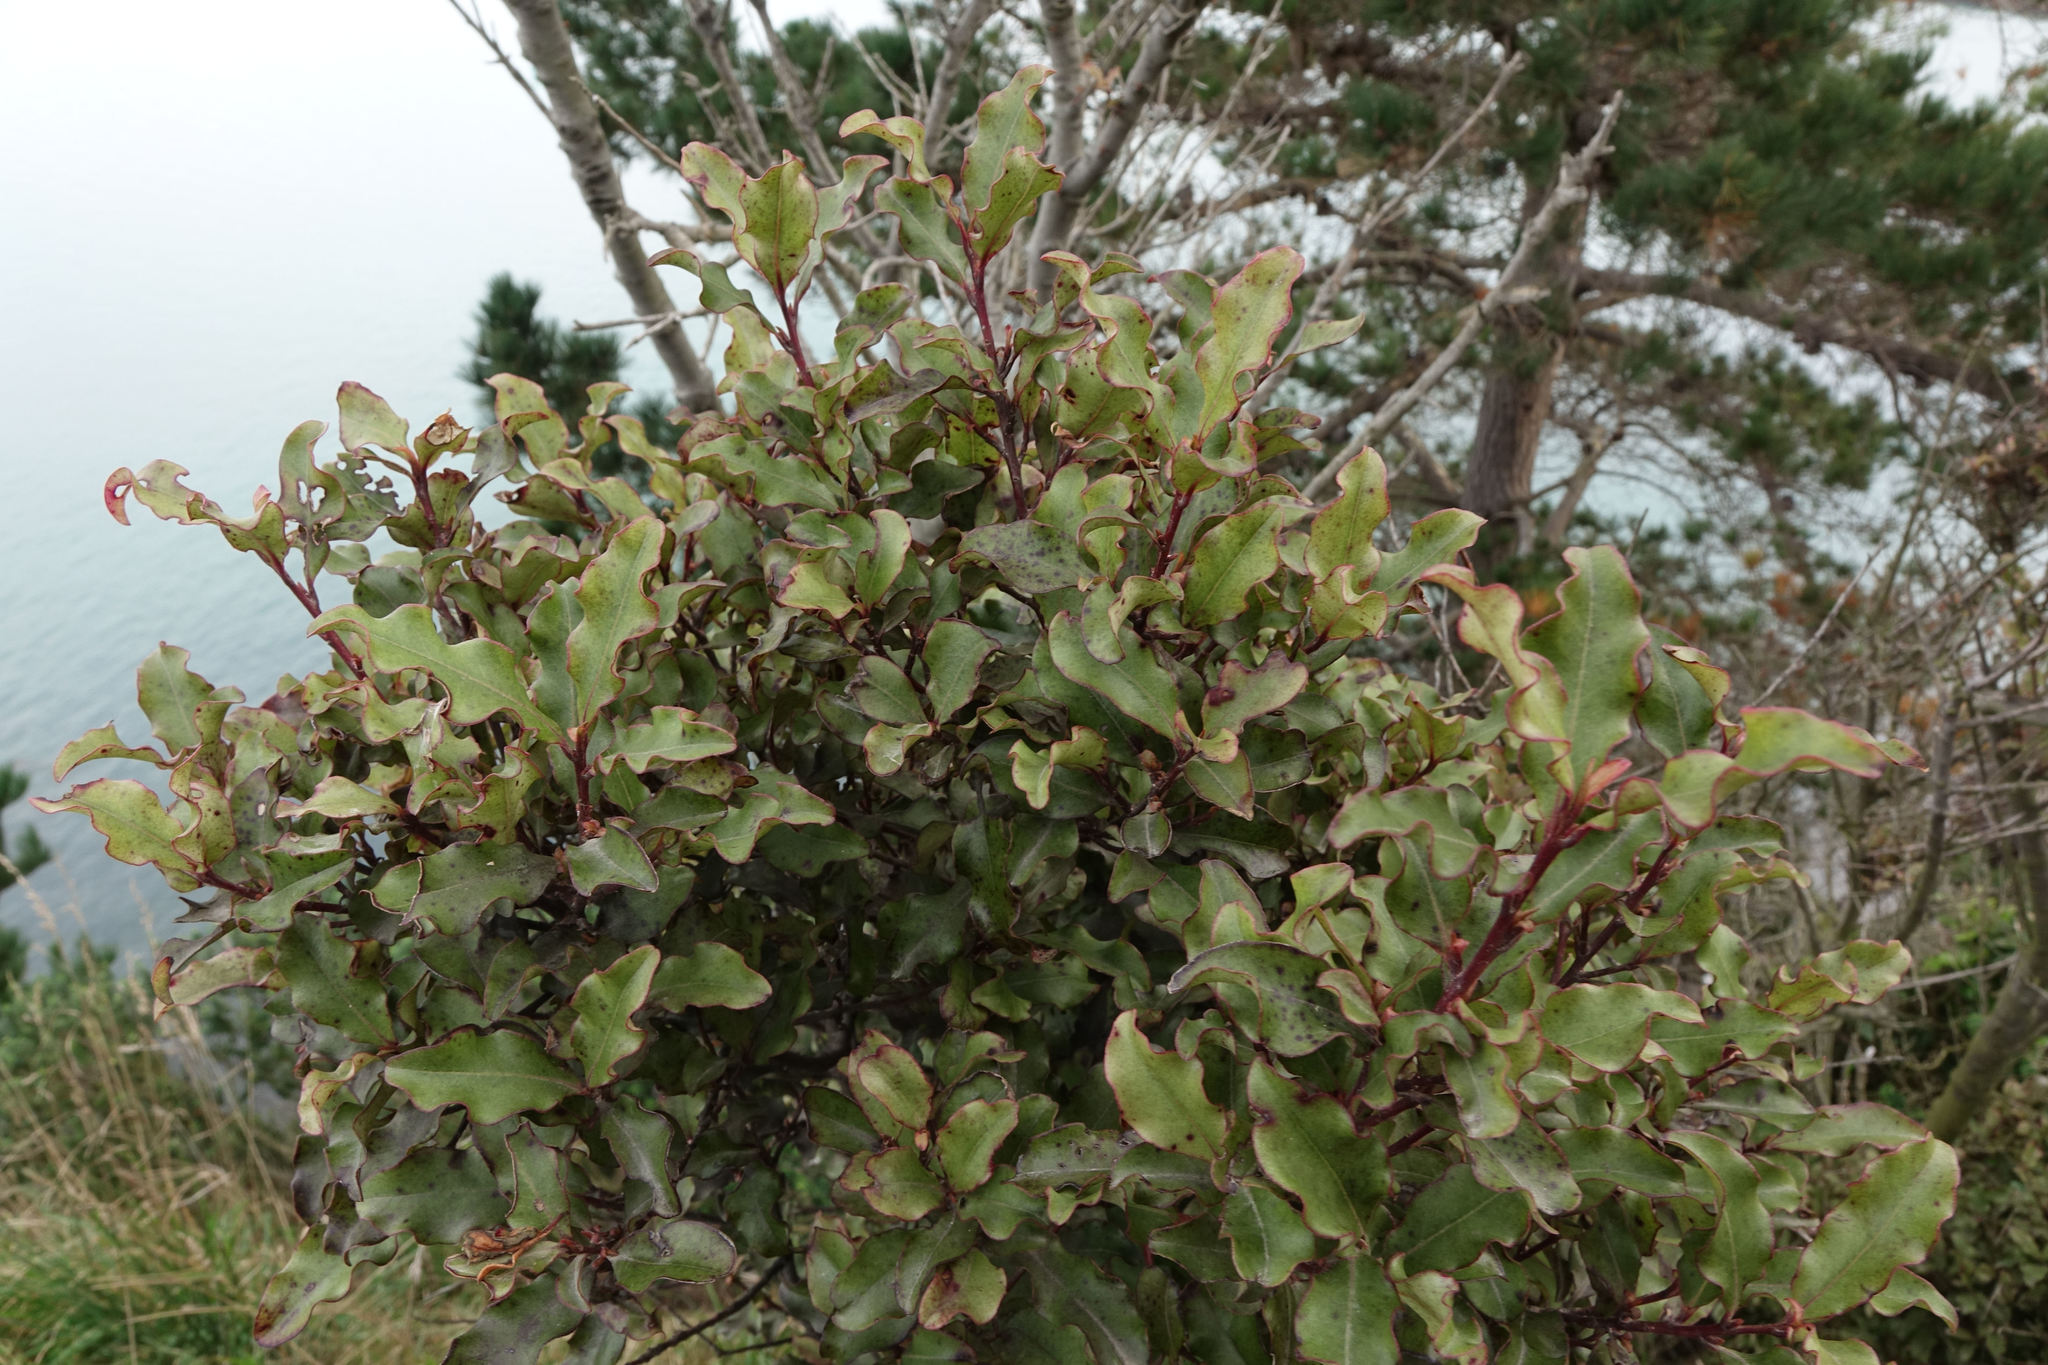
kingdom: Plantae
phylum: Tracheophyta
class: Magnoliopsida
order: Ericales
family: Primulaceae
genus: Myrsine
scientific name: Myrsine australis
